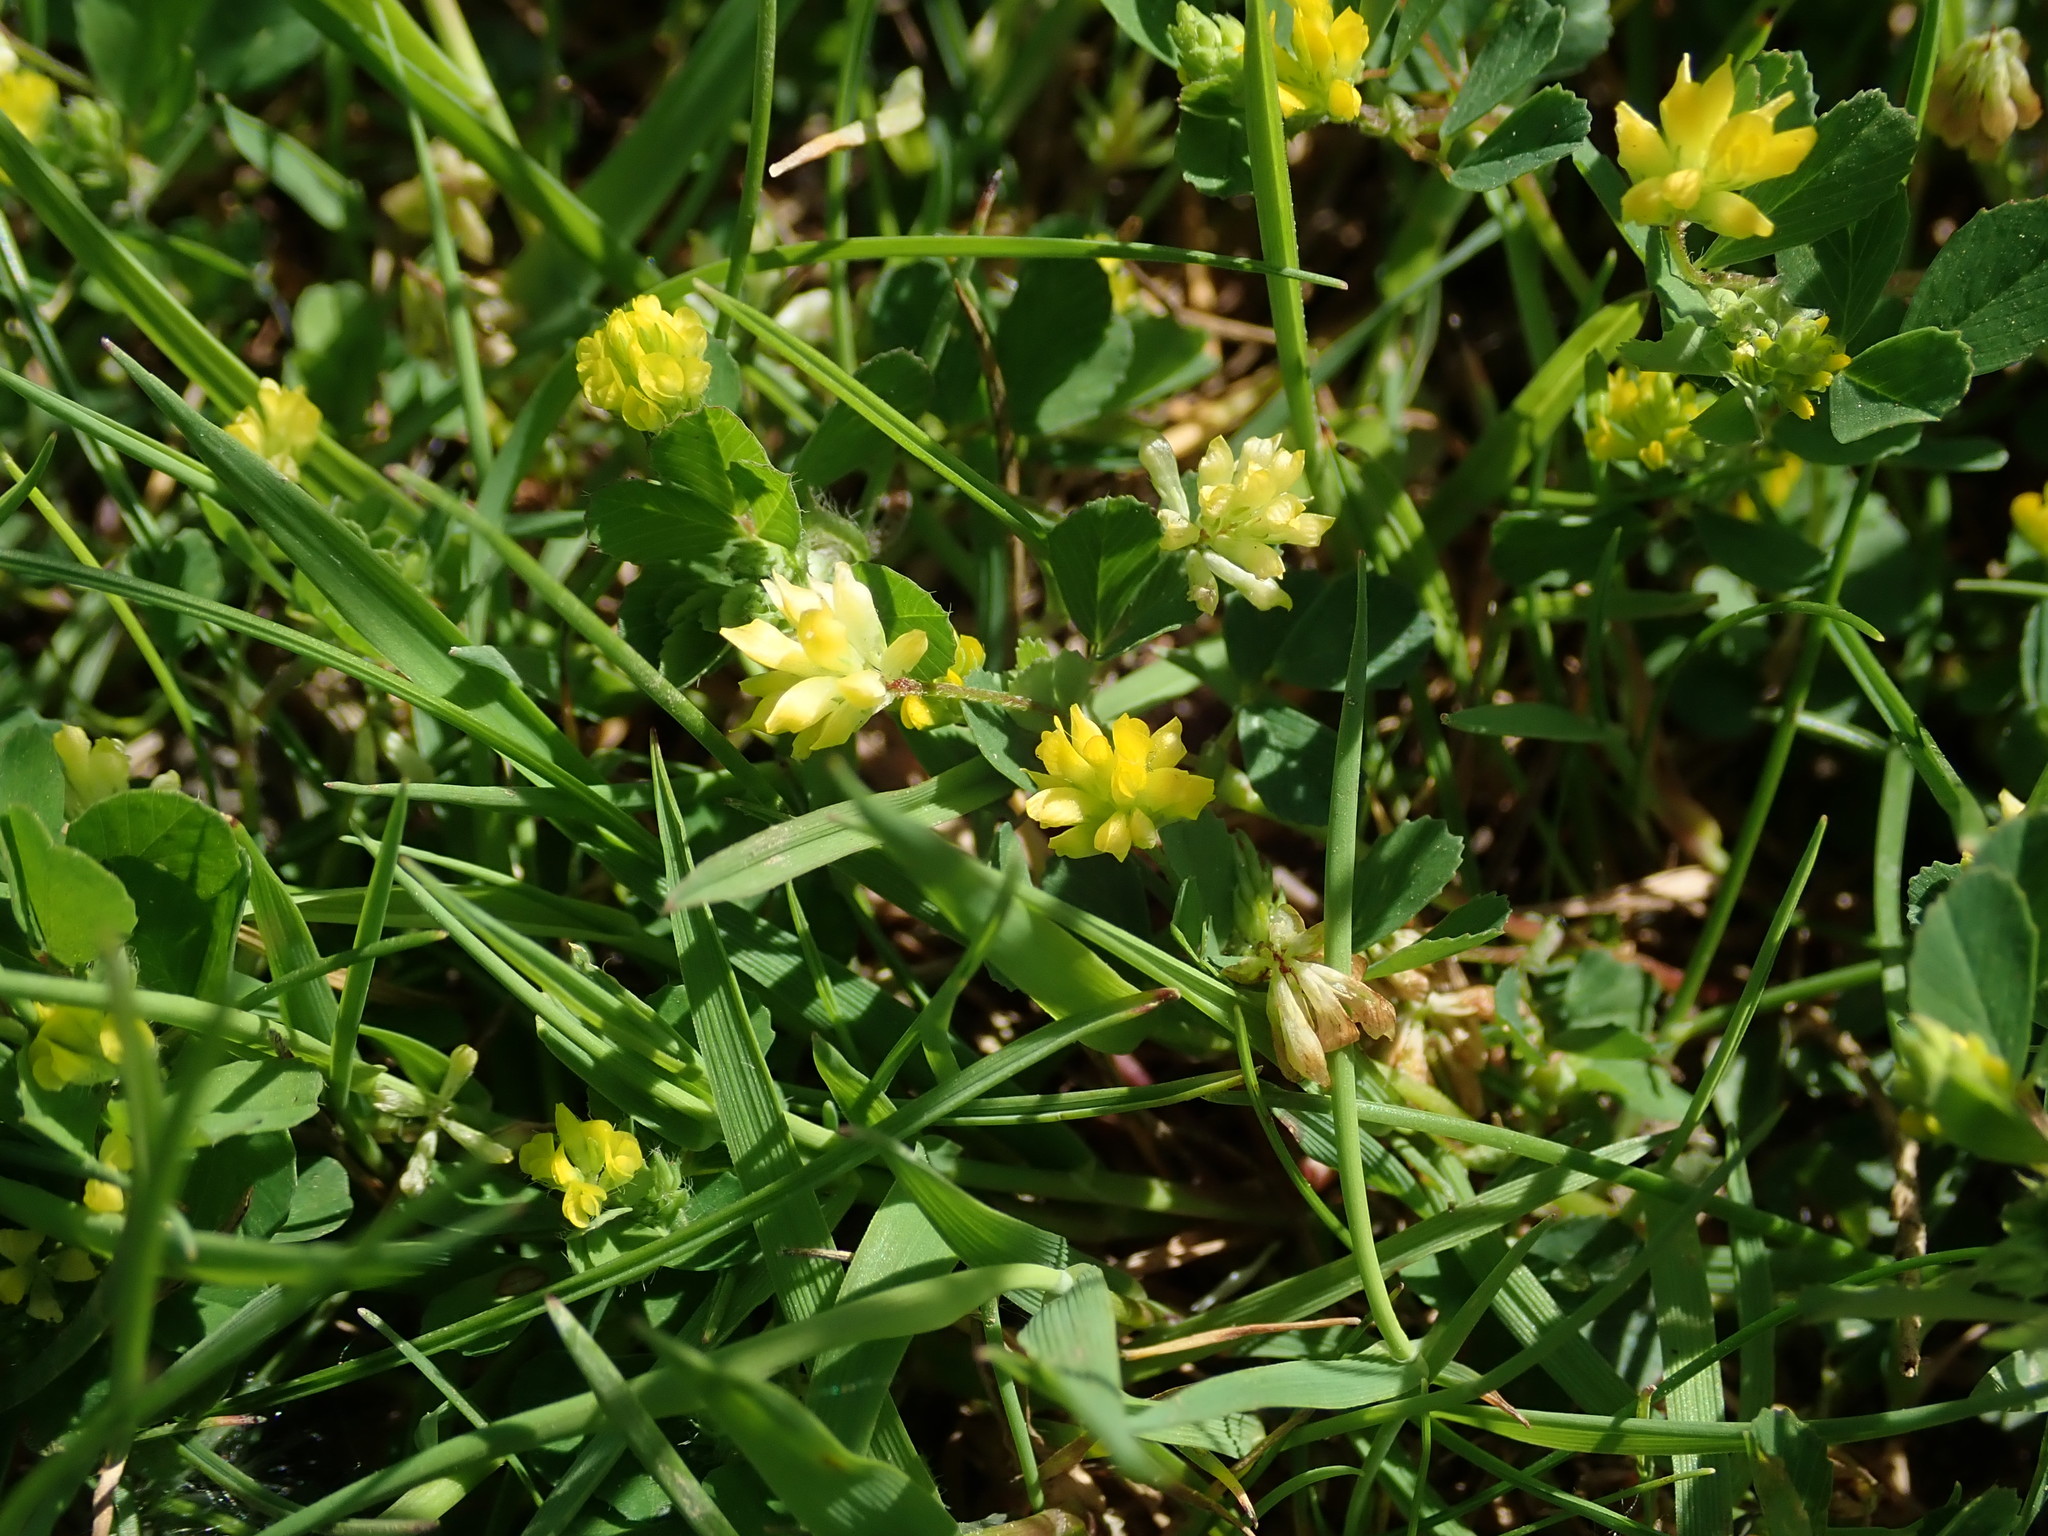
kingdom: Plantae
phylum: Tracheophyta
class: Magnoliopsida
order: Fabales
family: Fabaceae
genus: Trifolium
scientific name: Trifolium dubium
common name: Suckling clover
